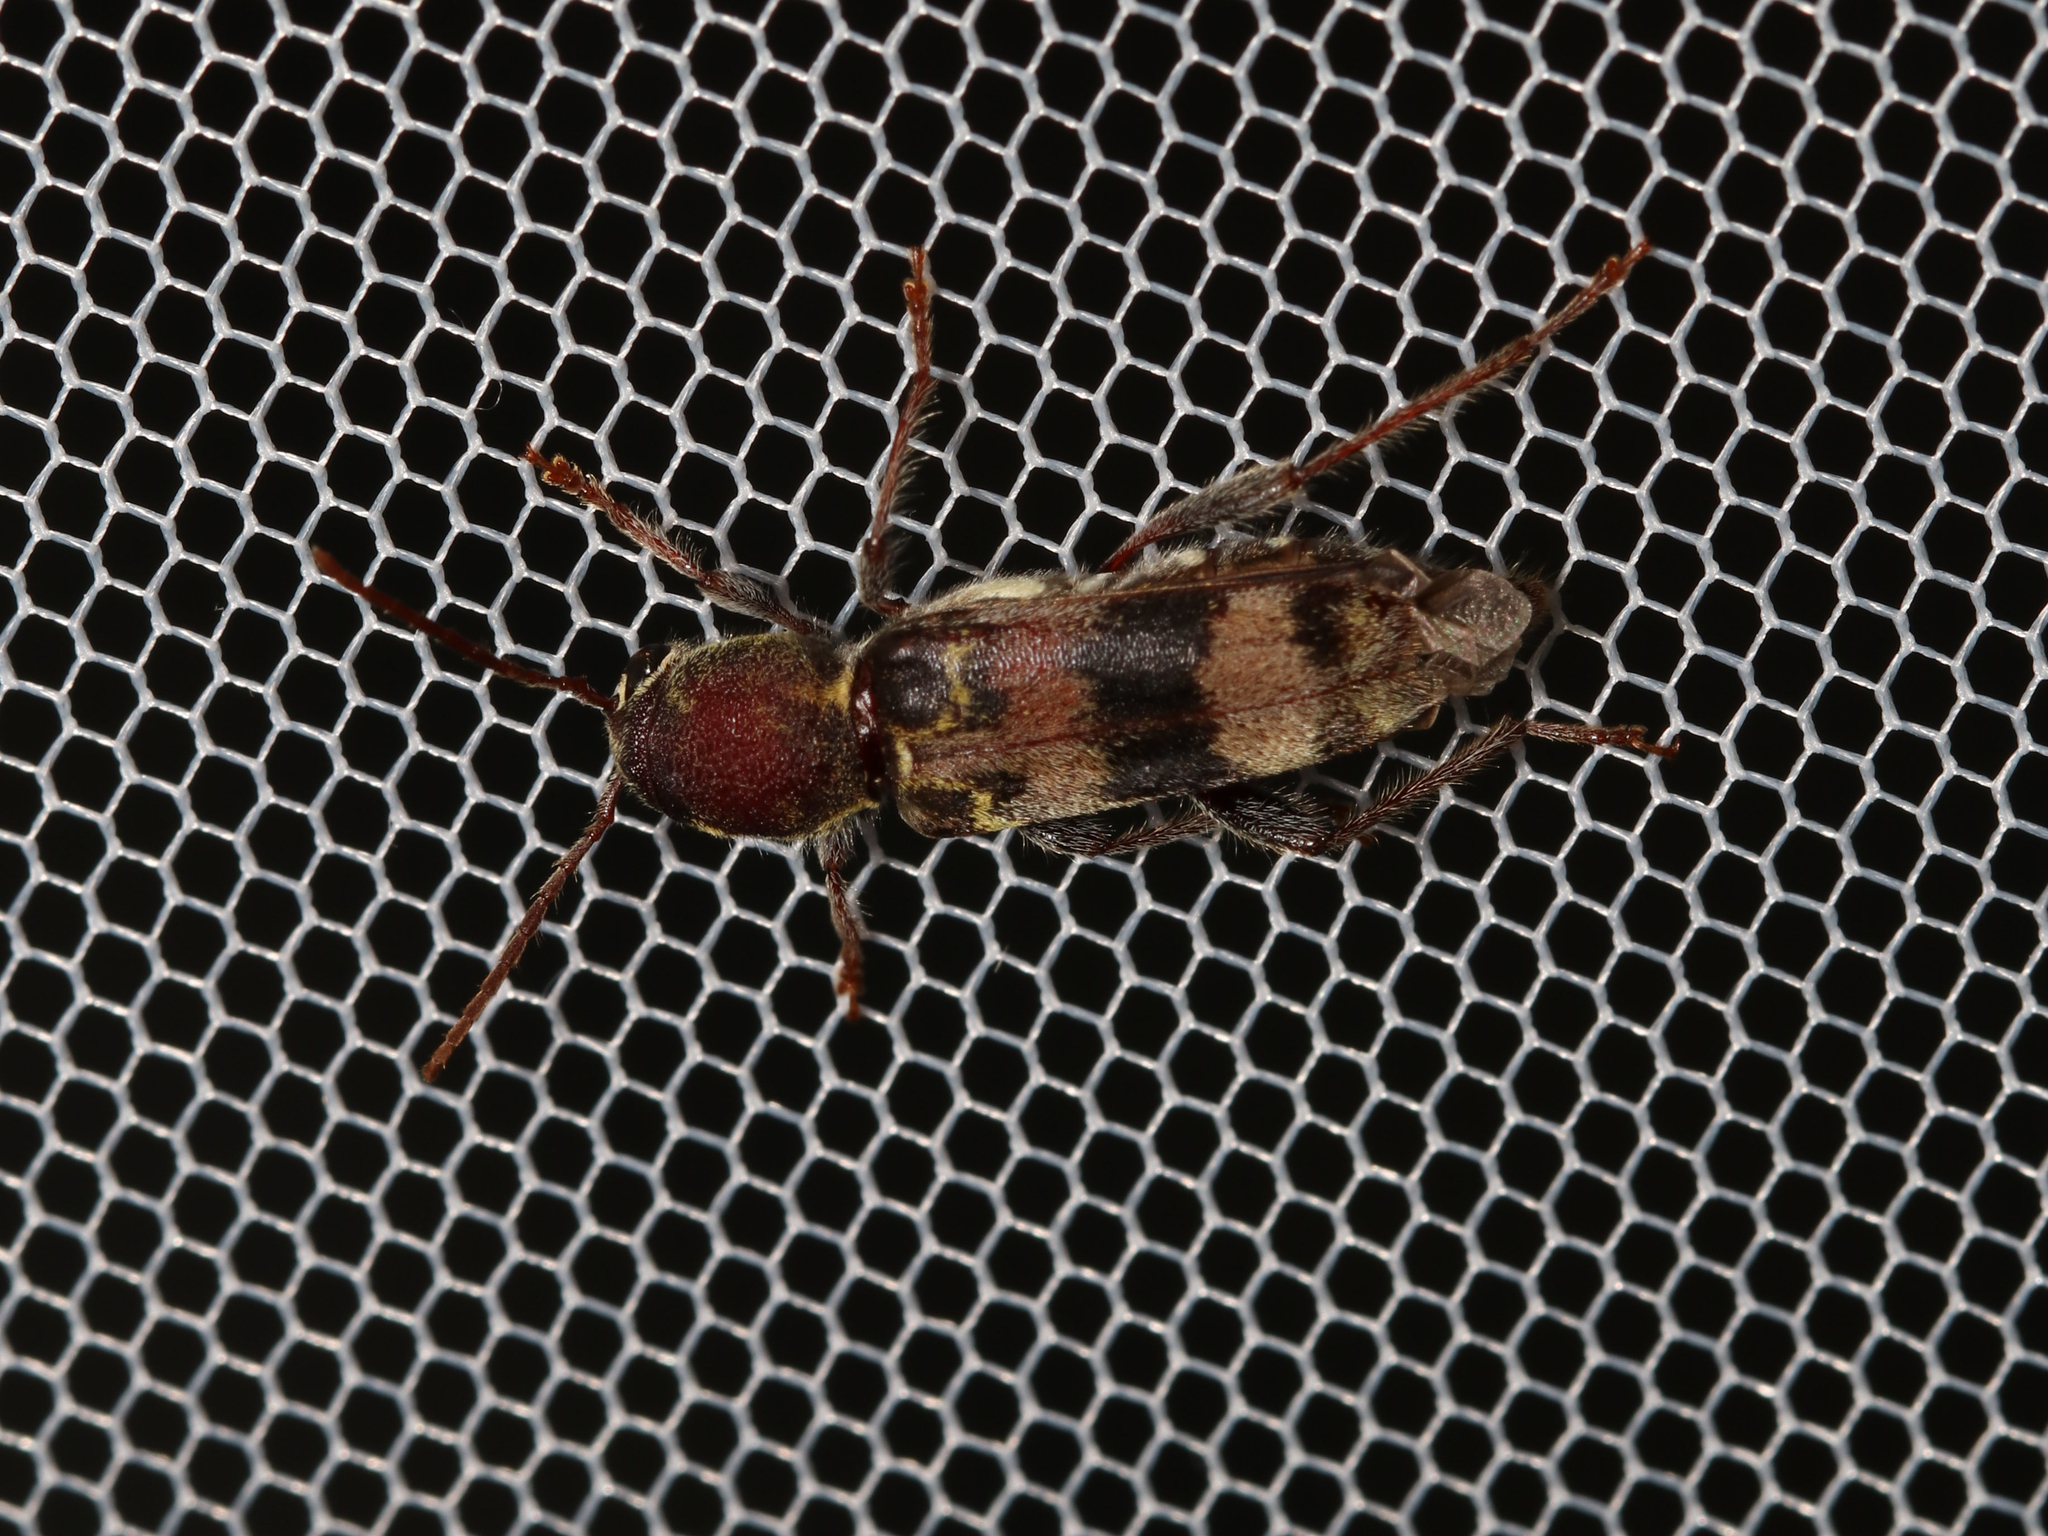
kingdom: Animalia
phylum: Arthropoda
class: Insecta
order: Coleoptera
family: Cerambycidae
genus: Xylotrechus
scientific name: Xylotrechus colonus
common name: Long-horned beetle
